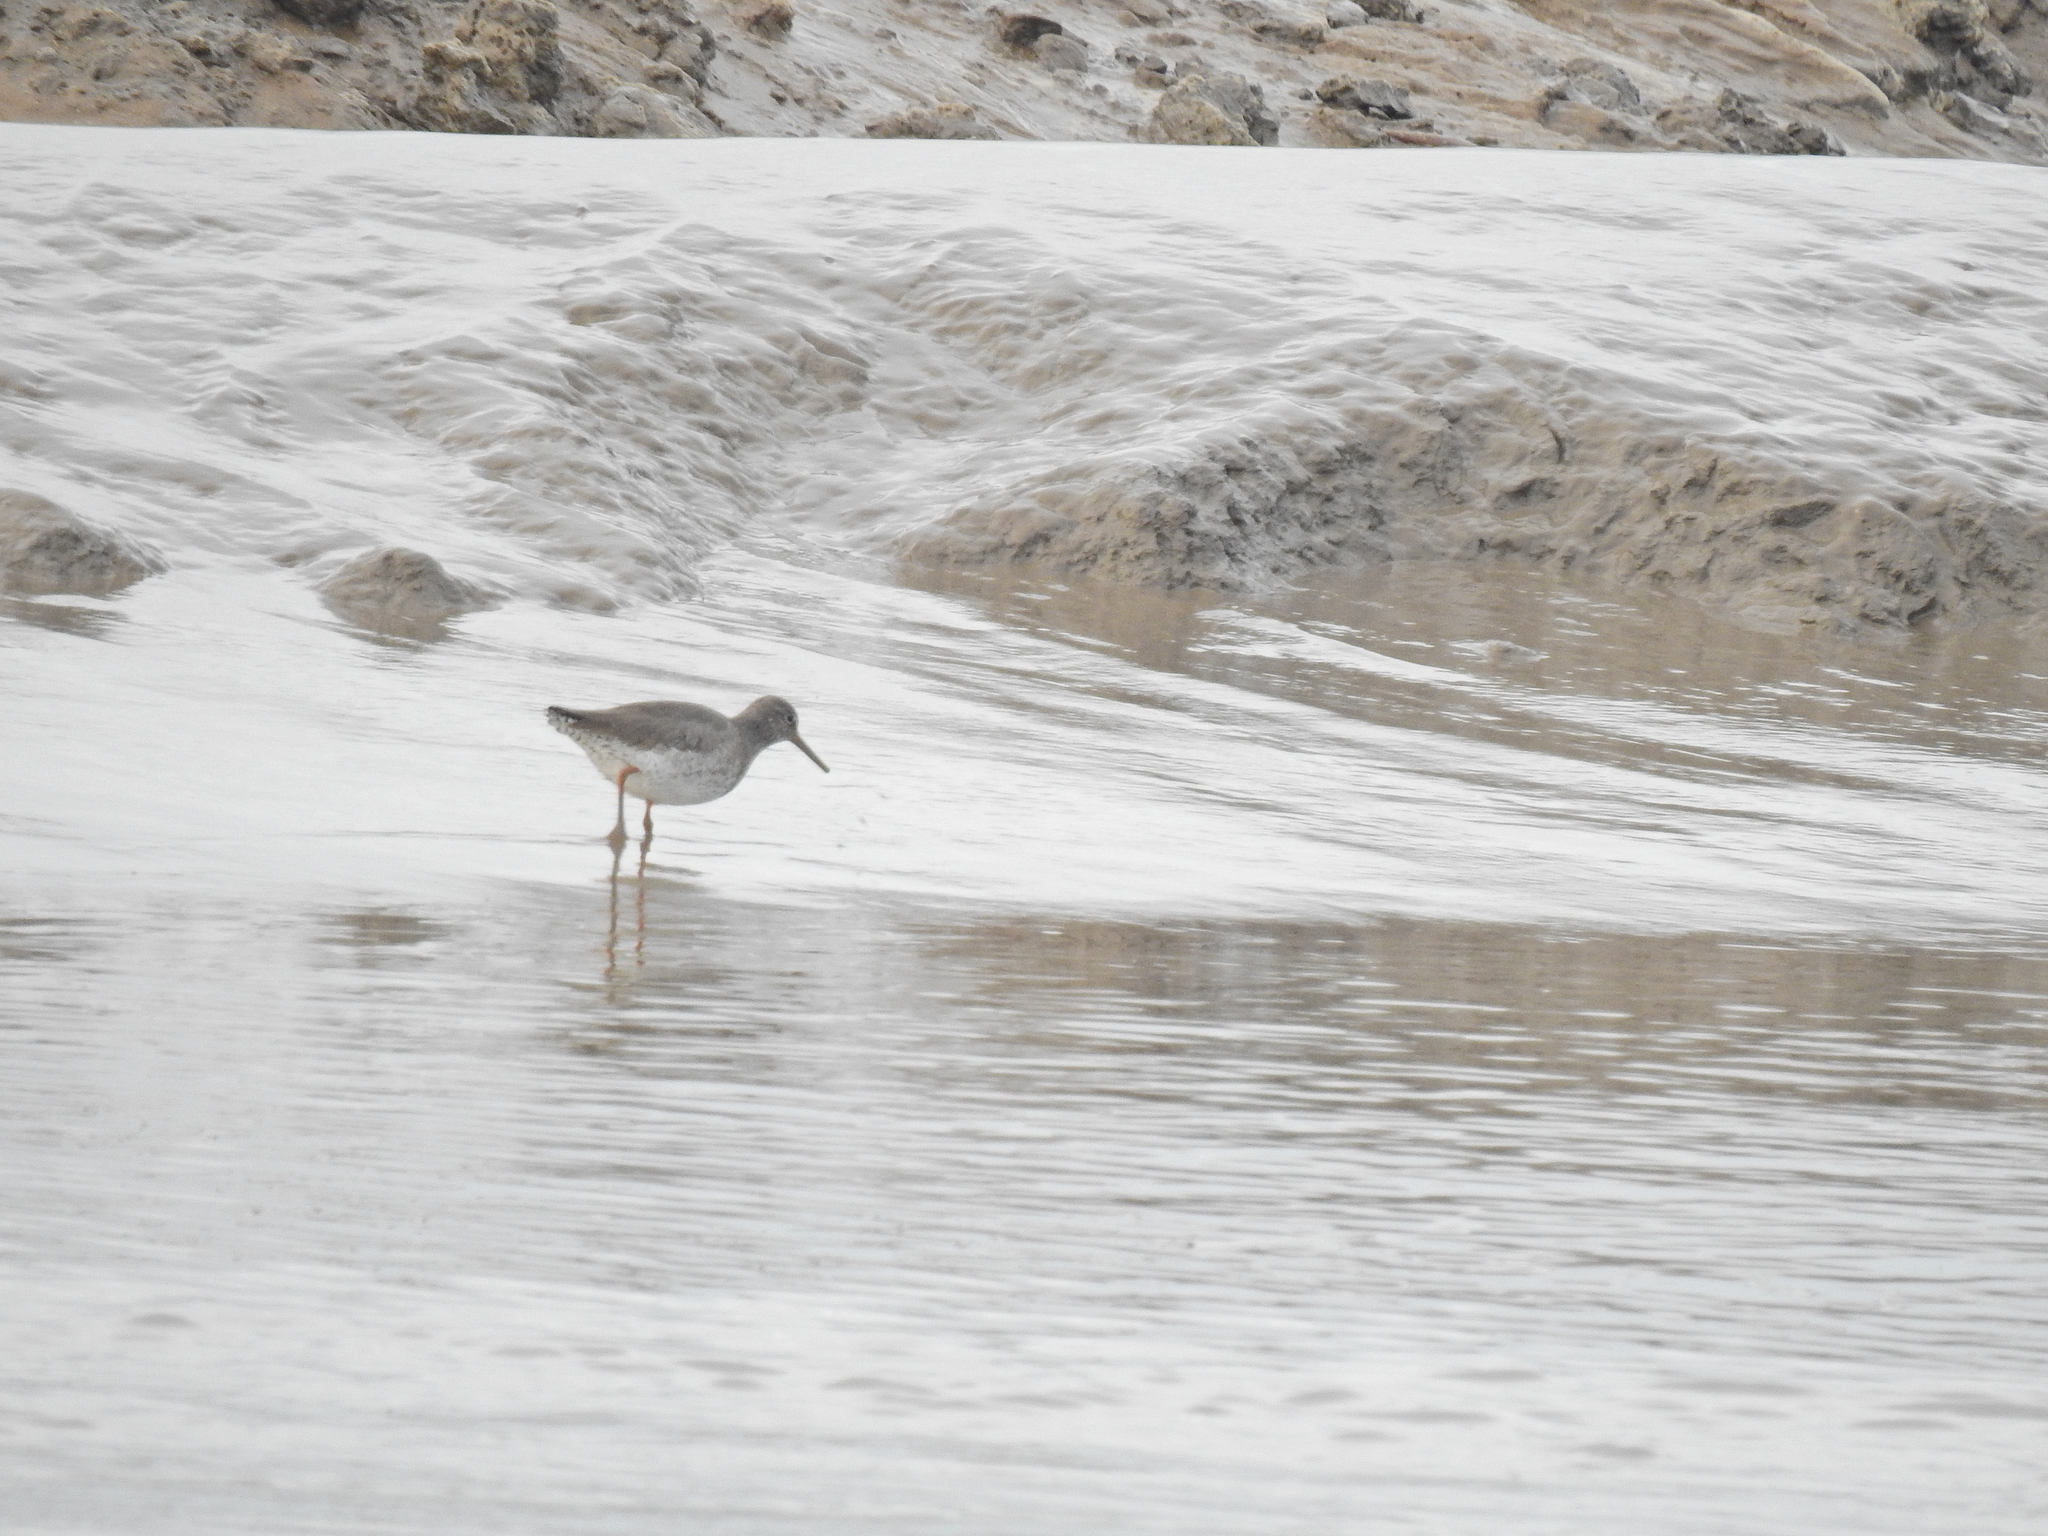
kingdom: Animalia
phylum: Chordata
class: Aves
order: Charadriiformes
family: Scolopacidae
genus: Tringa
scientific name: Tringa totanus
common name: Common redshank
